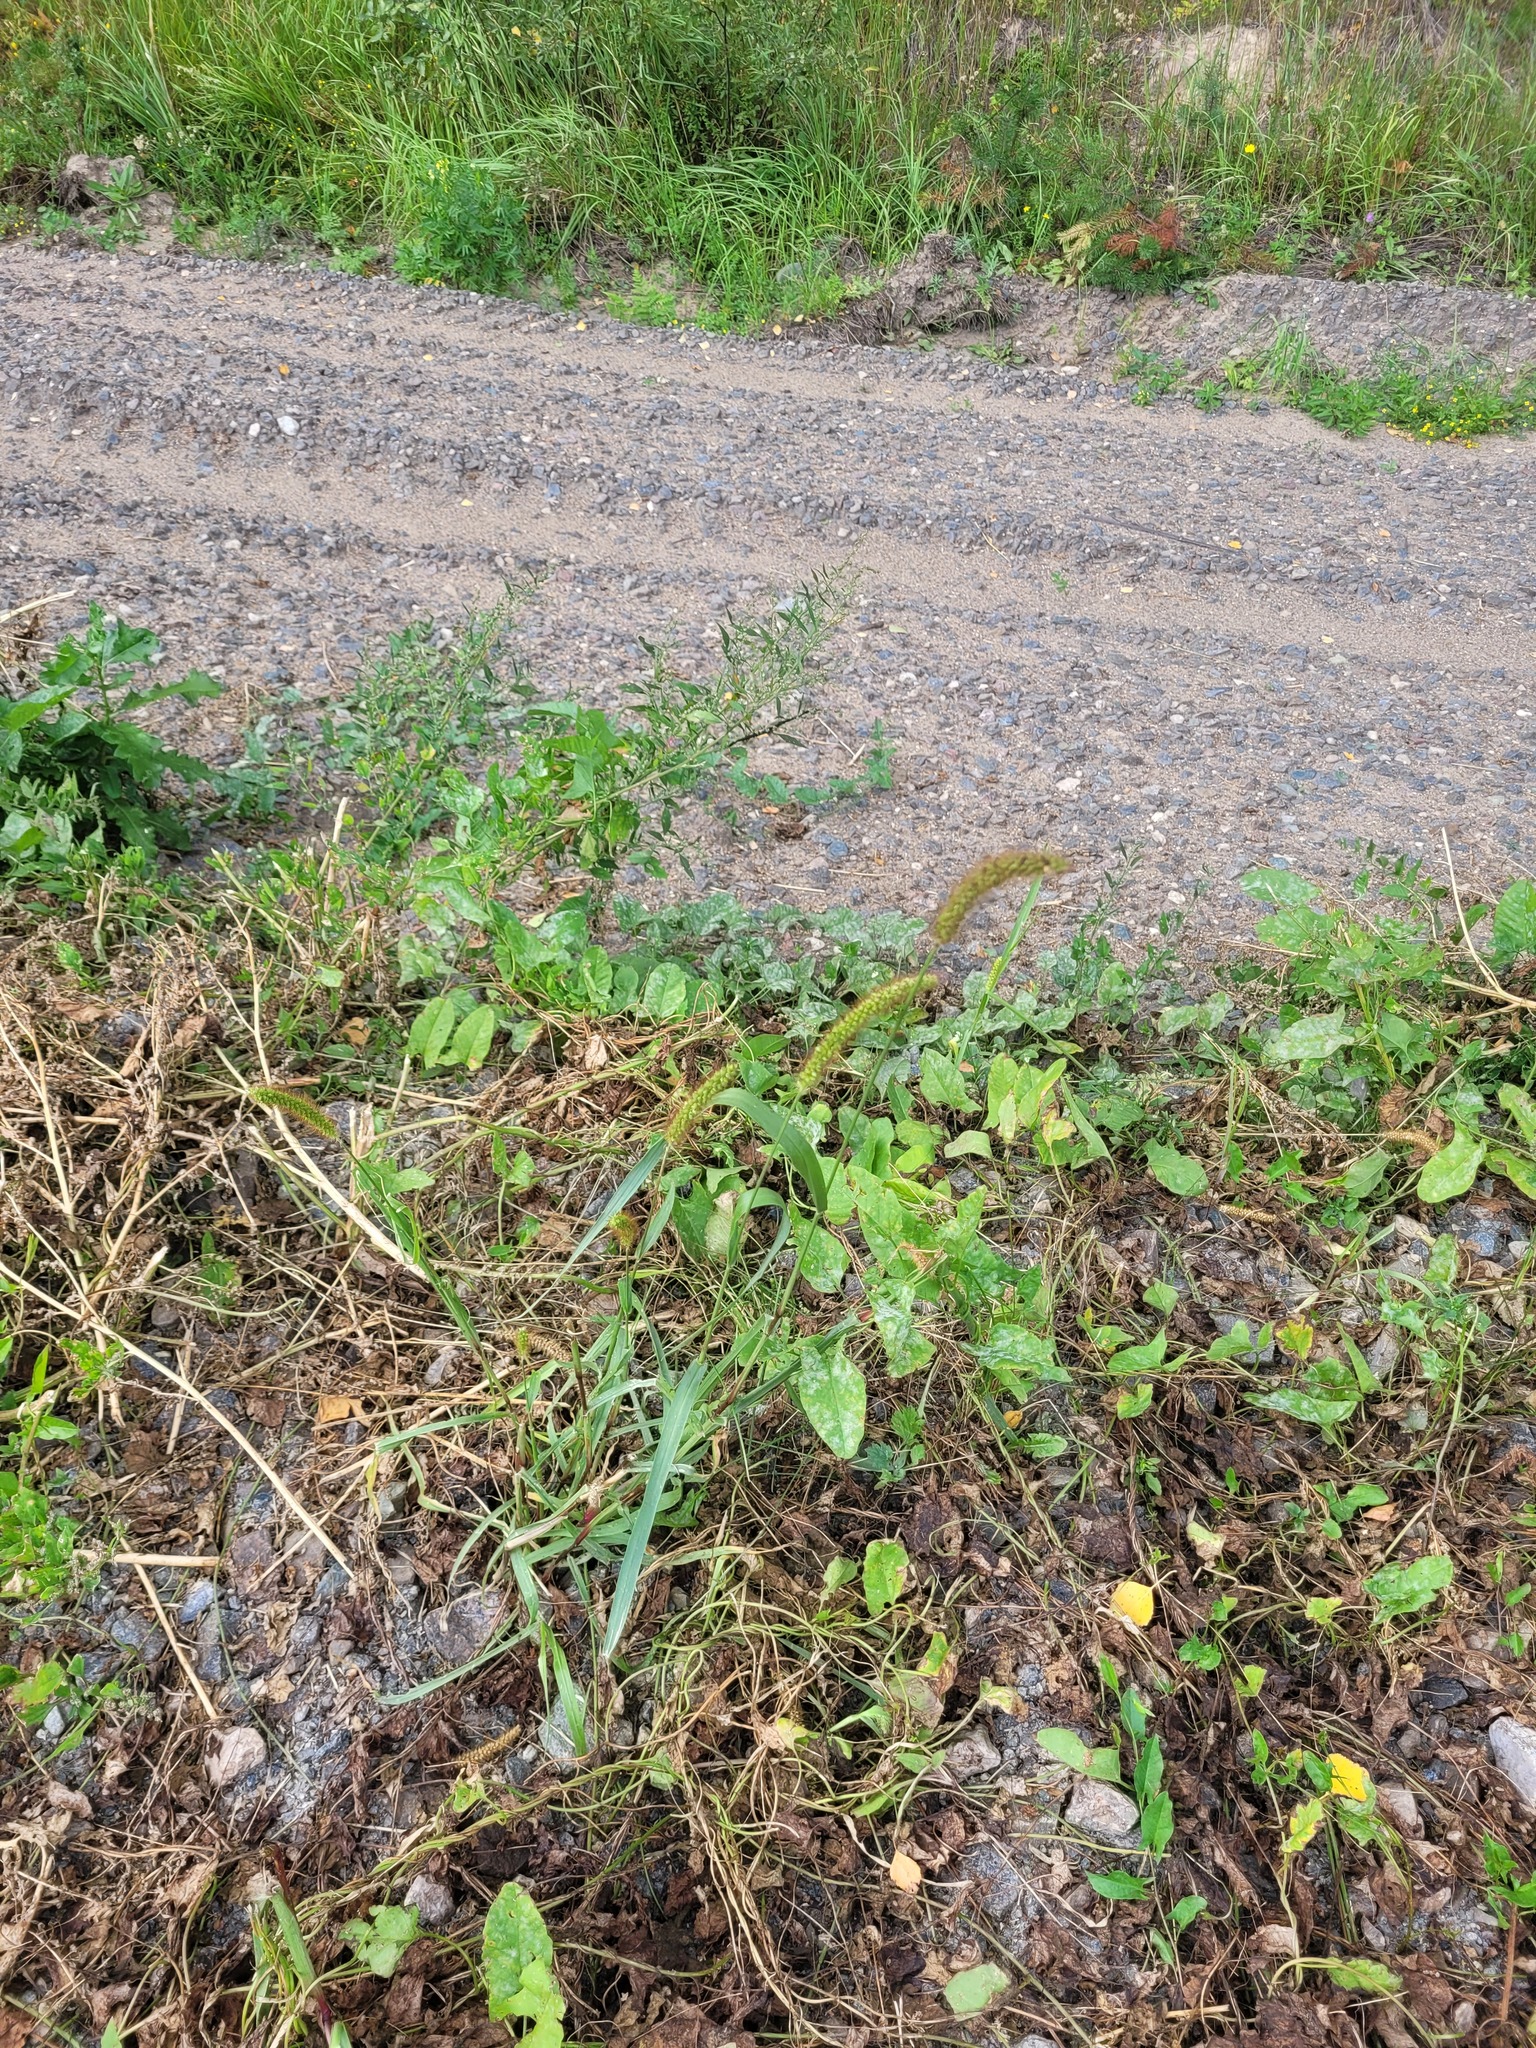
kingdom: Plantae
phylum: Tracheophyta
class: Liliopsida
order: Poales
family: Poaceae
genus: Setaria
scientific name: Setaria pumila
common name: Yellow bristle-grass
